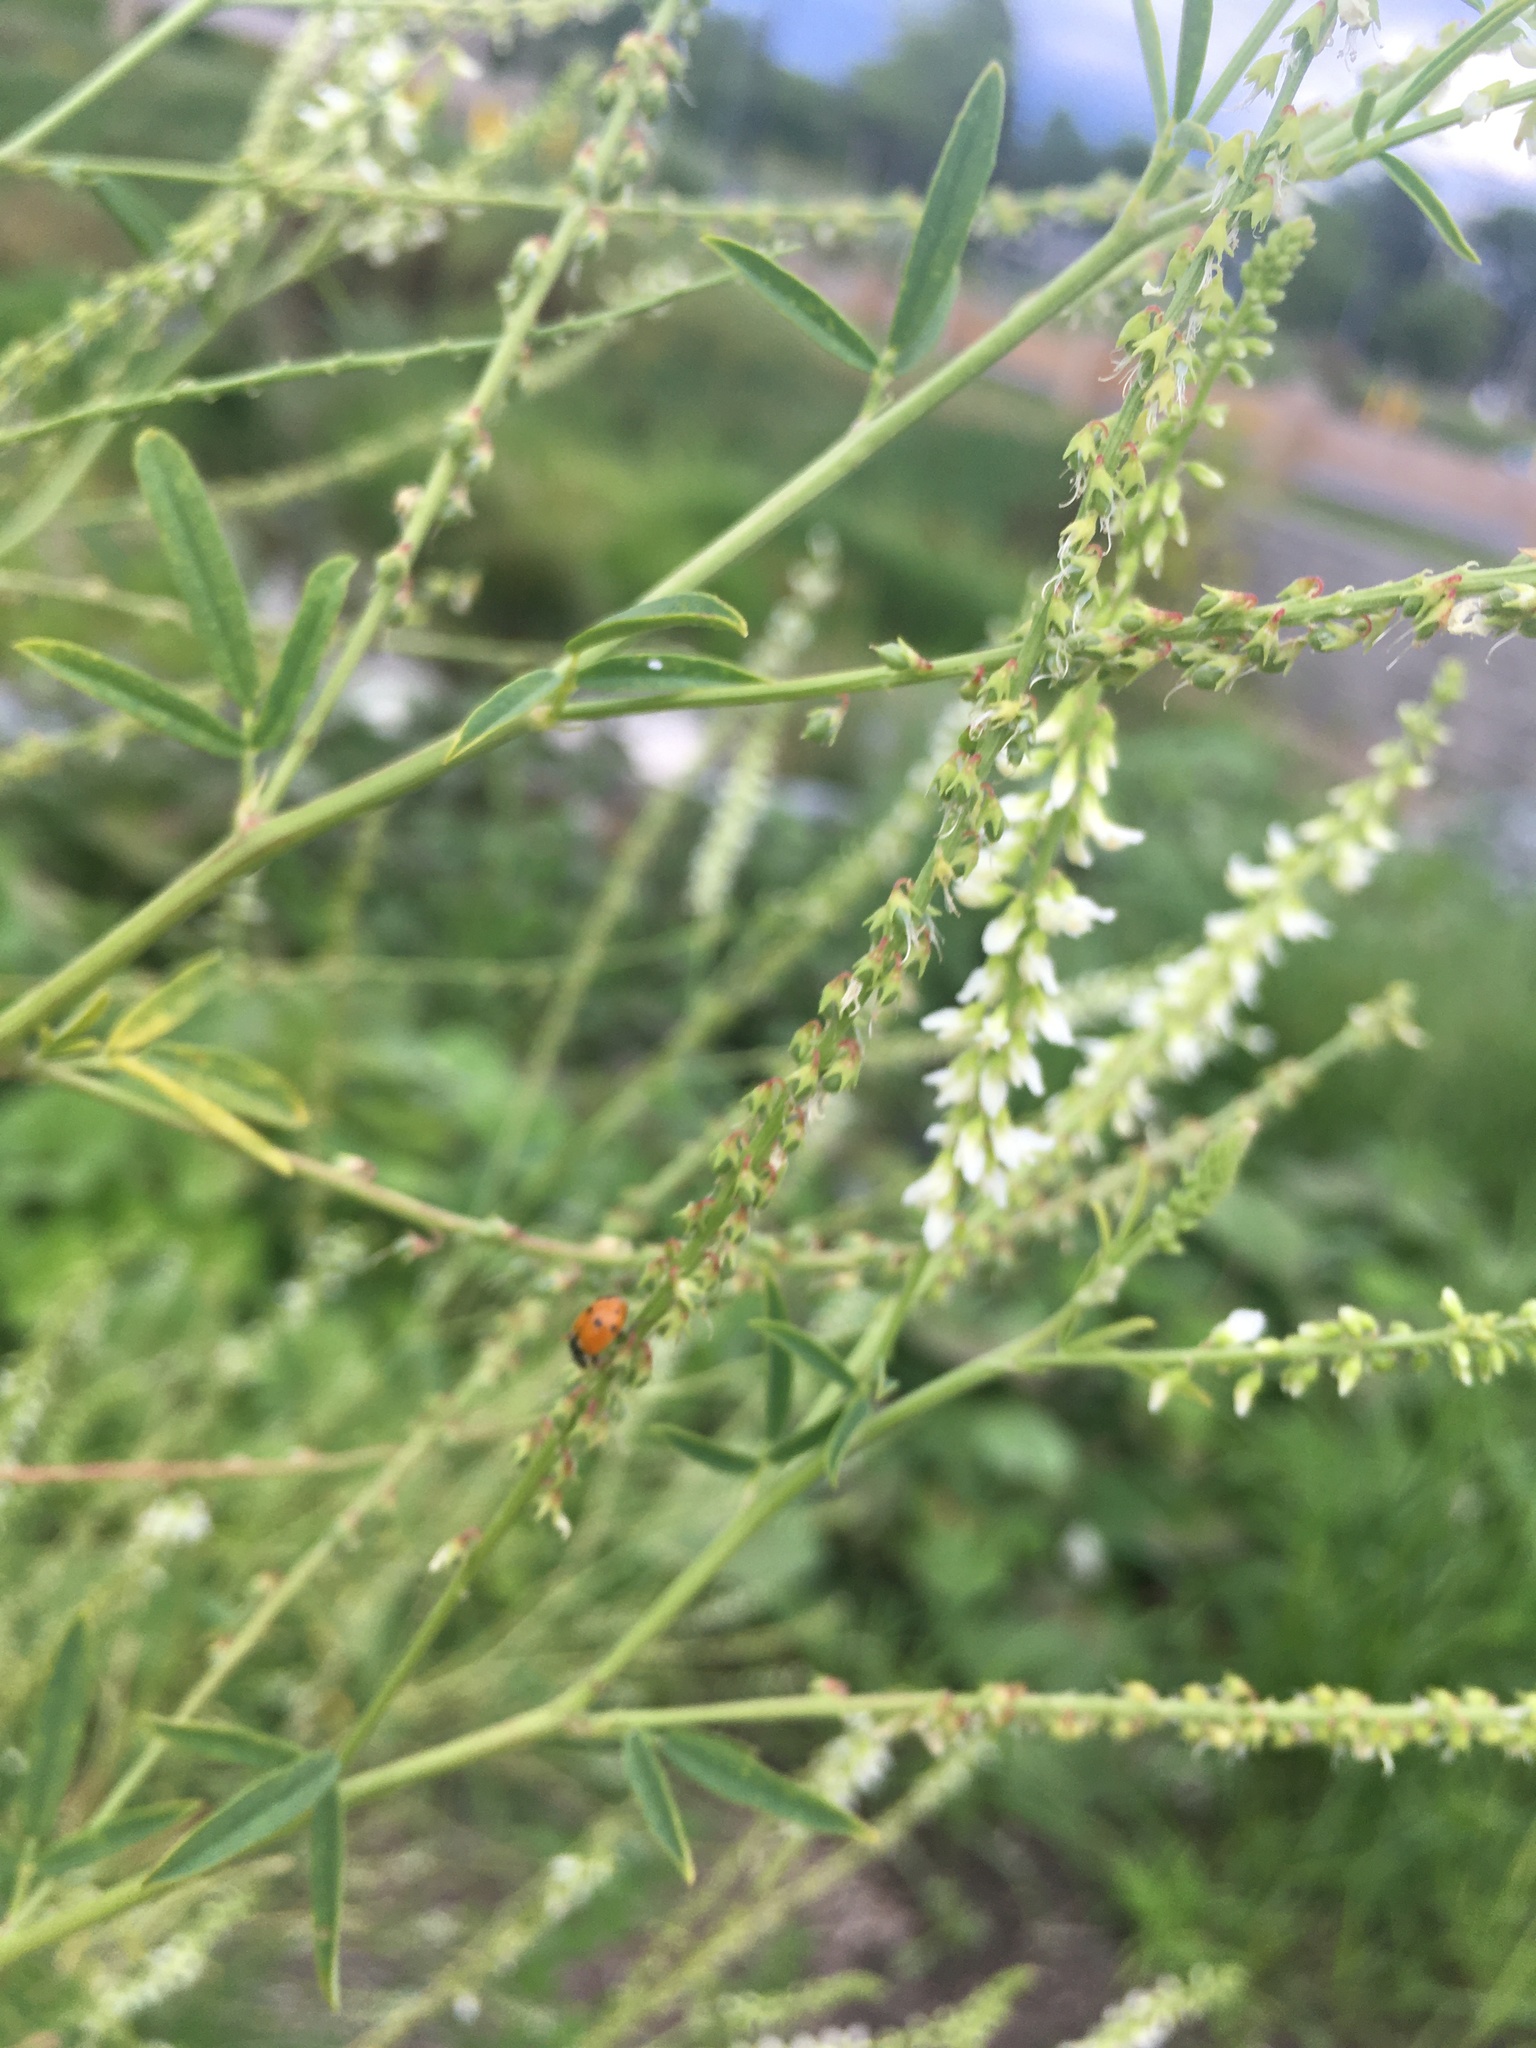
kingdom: Animalia
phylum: Arthropoda
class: Insecta
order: Coleoptera
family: Coccinellidae
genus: Hippodamia
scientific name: Hippodamia
